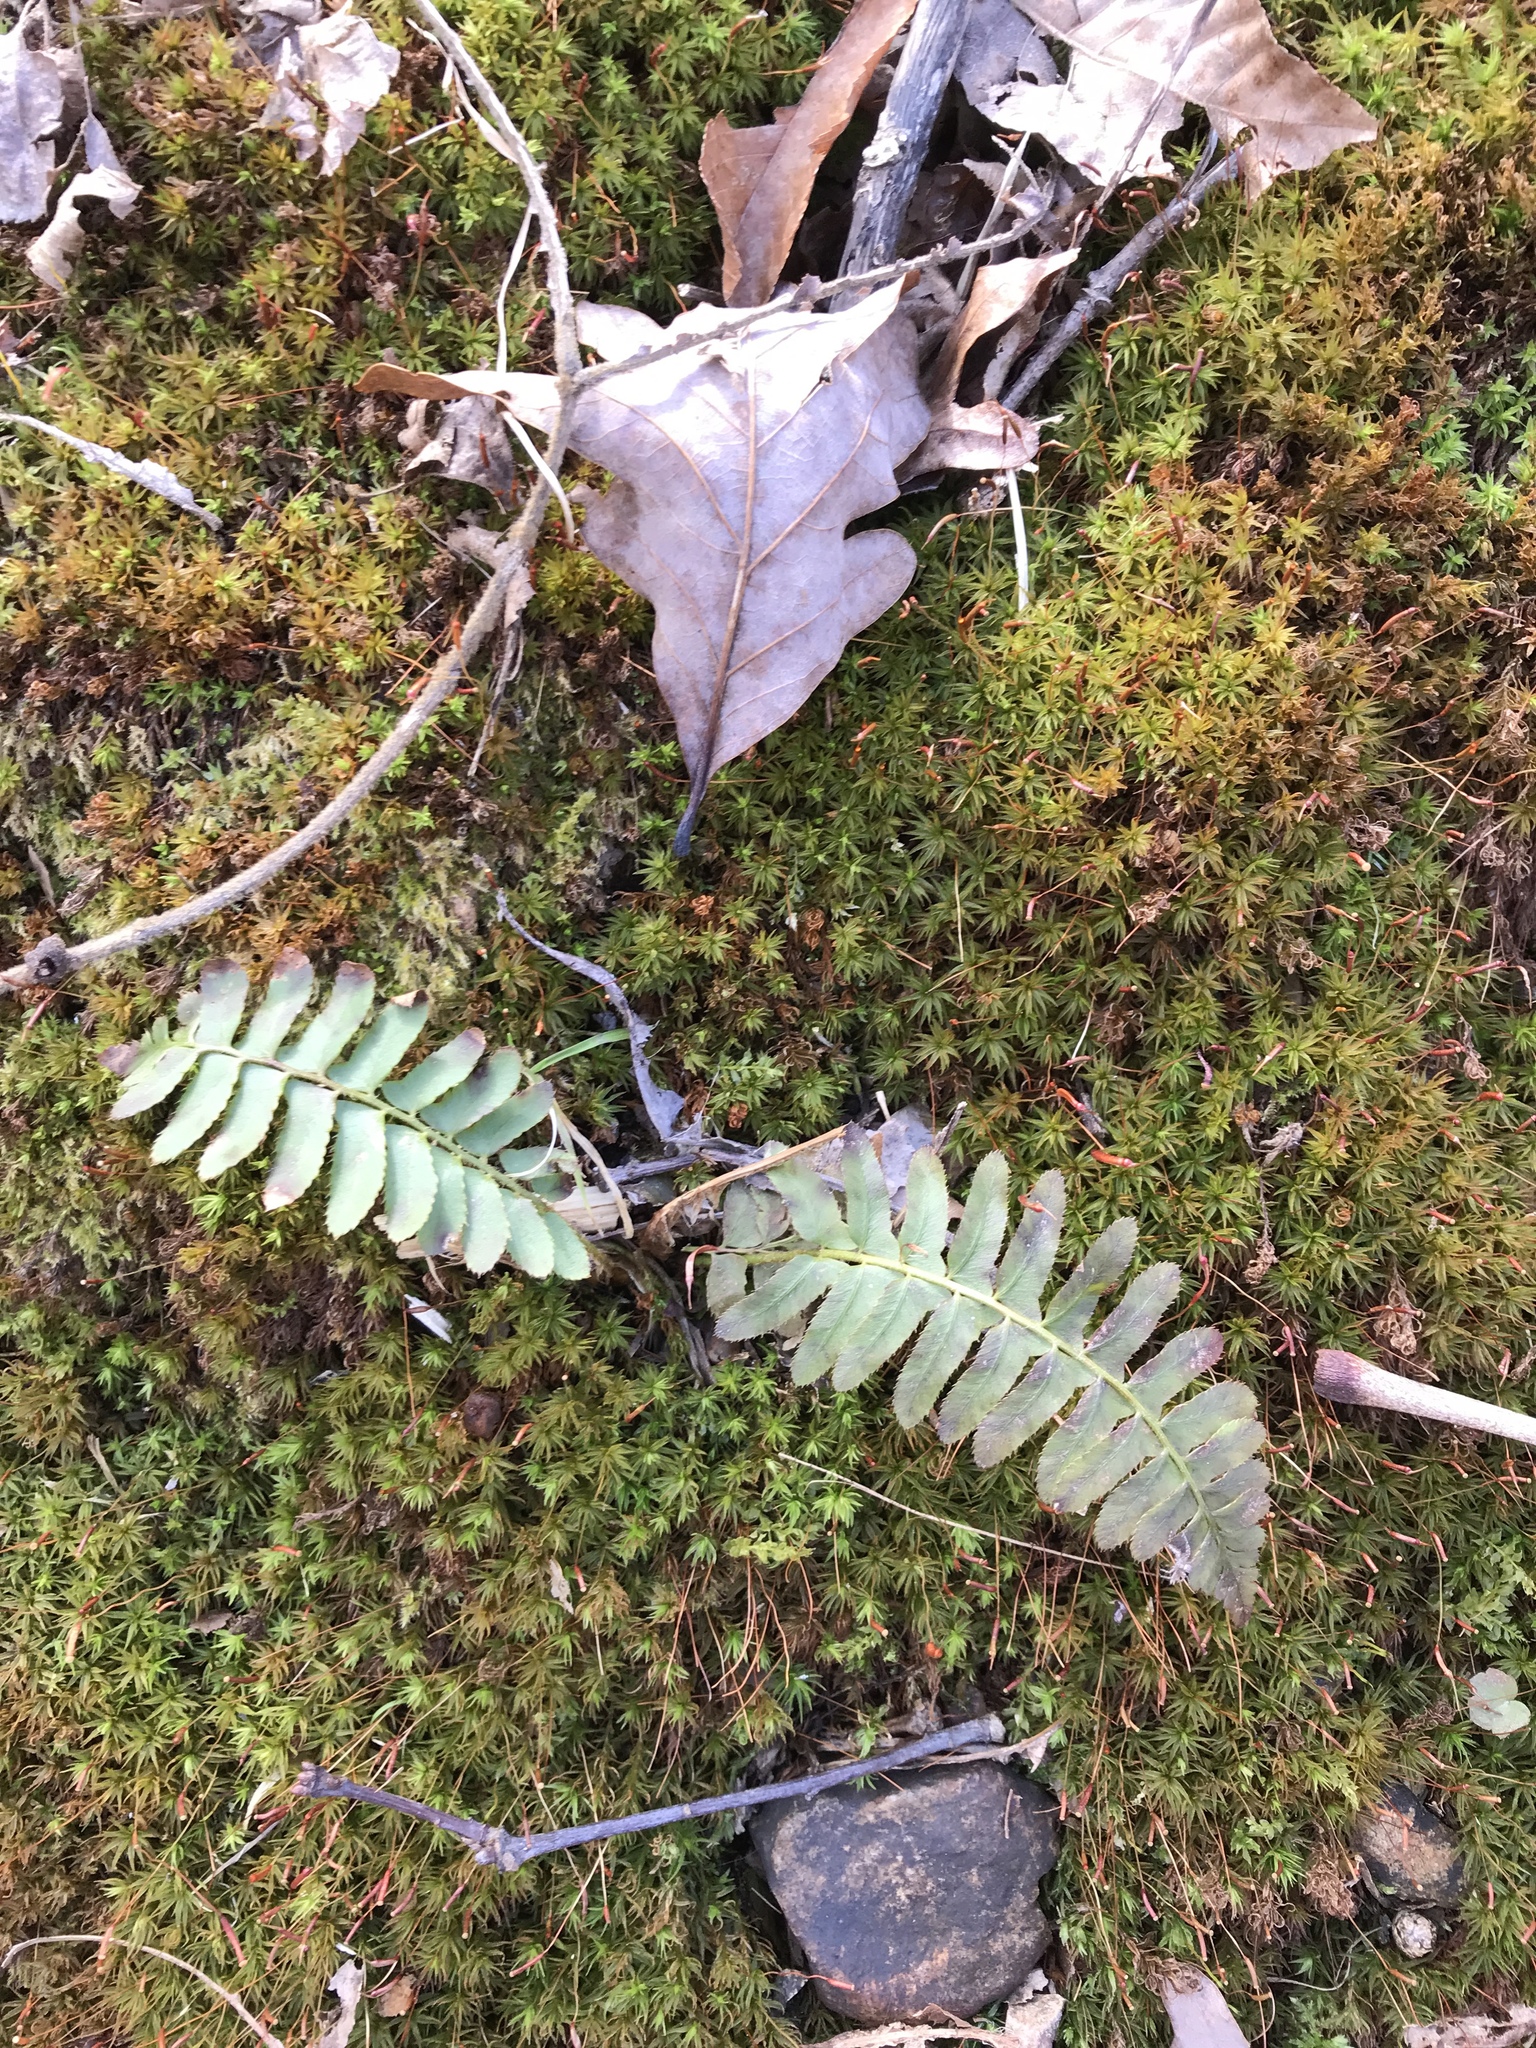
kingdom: Plantae
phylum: Tracheophyta
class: Polypodiopsida
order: Polypodiales
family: Dryopteridaceae
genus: Polystichum
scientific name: Polystichum acrostichoides
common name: Christmas fern
